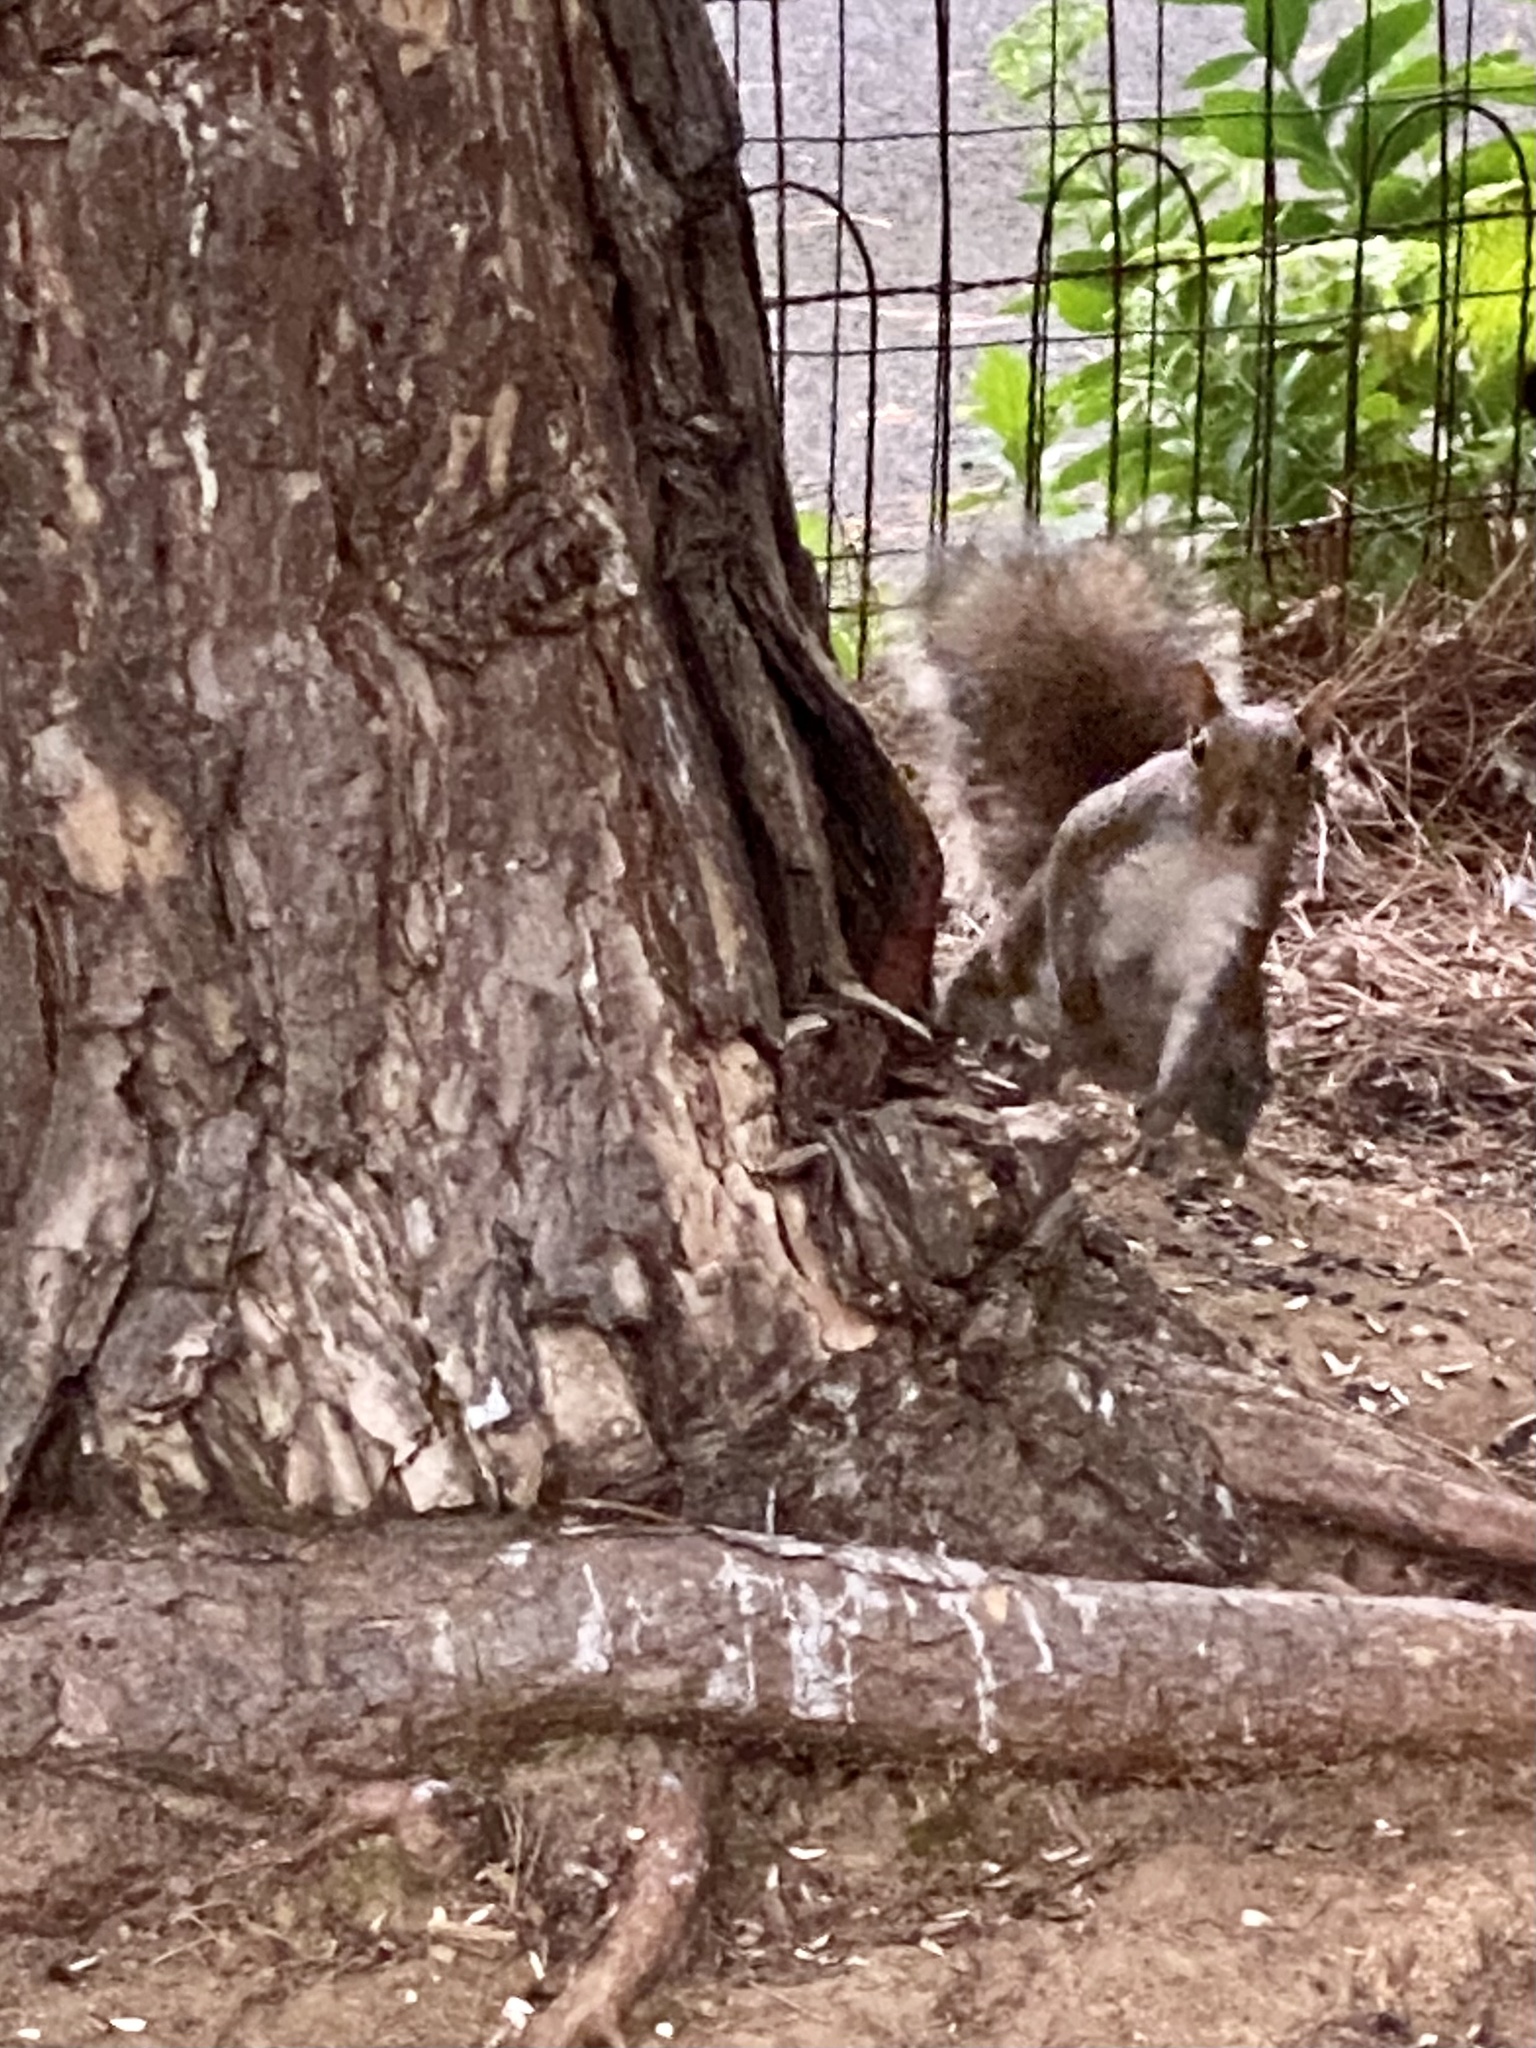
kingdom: Animalia
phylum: Chordata
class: Mammalia
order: Rodentia
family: Sciuridae
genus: Sciurus
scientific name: Sciurus carolinensis
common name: Eastern gray squirrel
